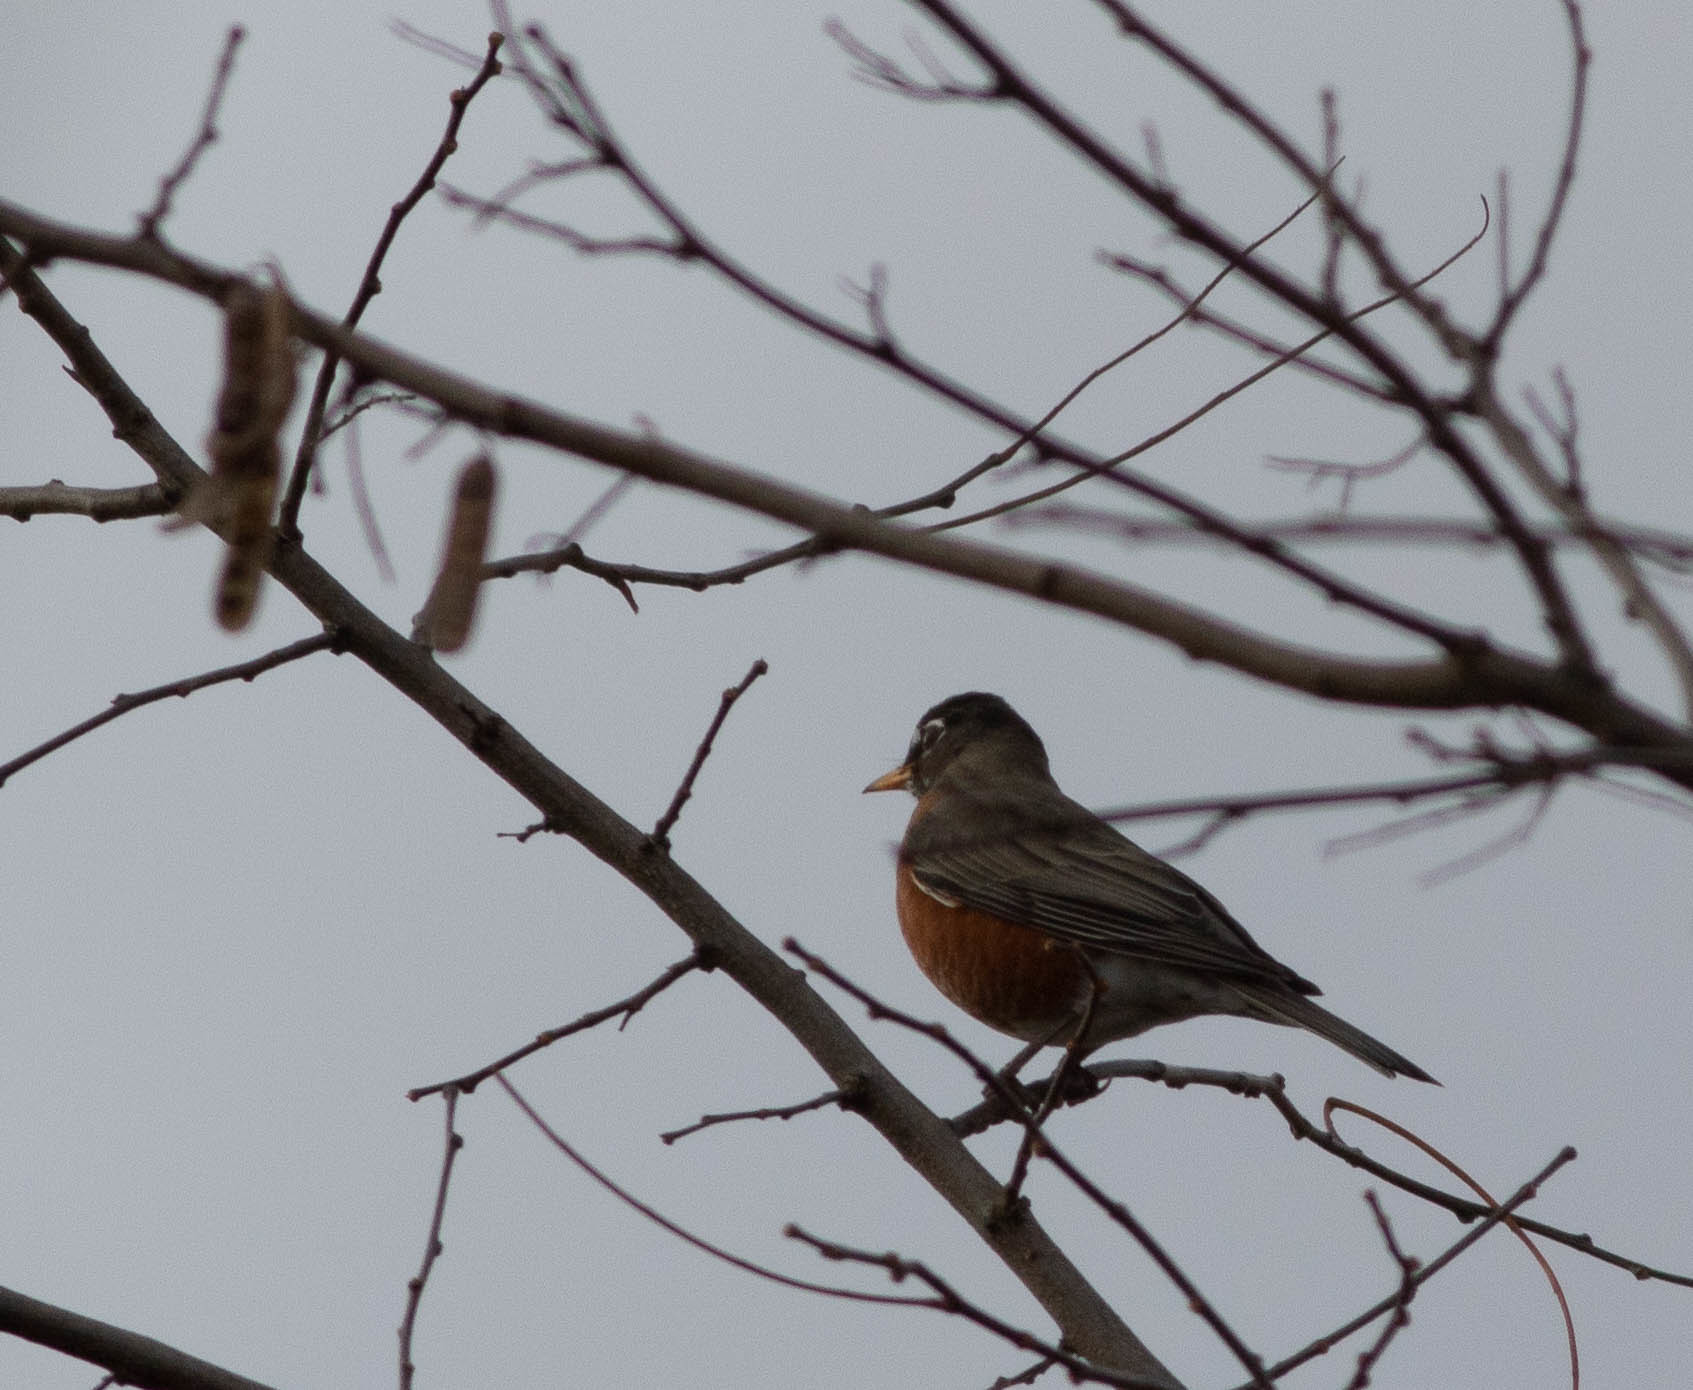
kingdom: Animalia
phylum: Chordata
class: Aves
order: Passeriformes
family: Turdidae
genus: Turdus
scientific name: Turdus migratorius
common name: American robin
